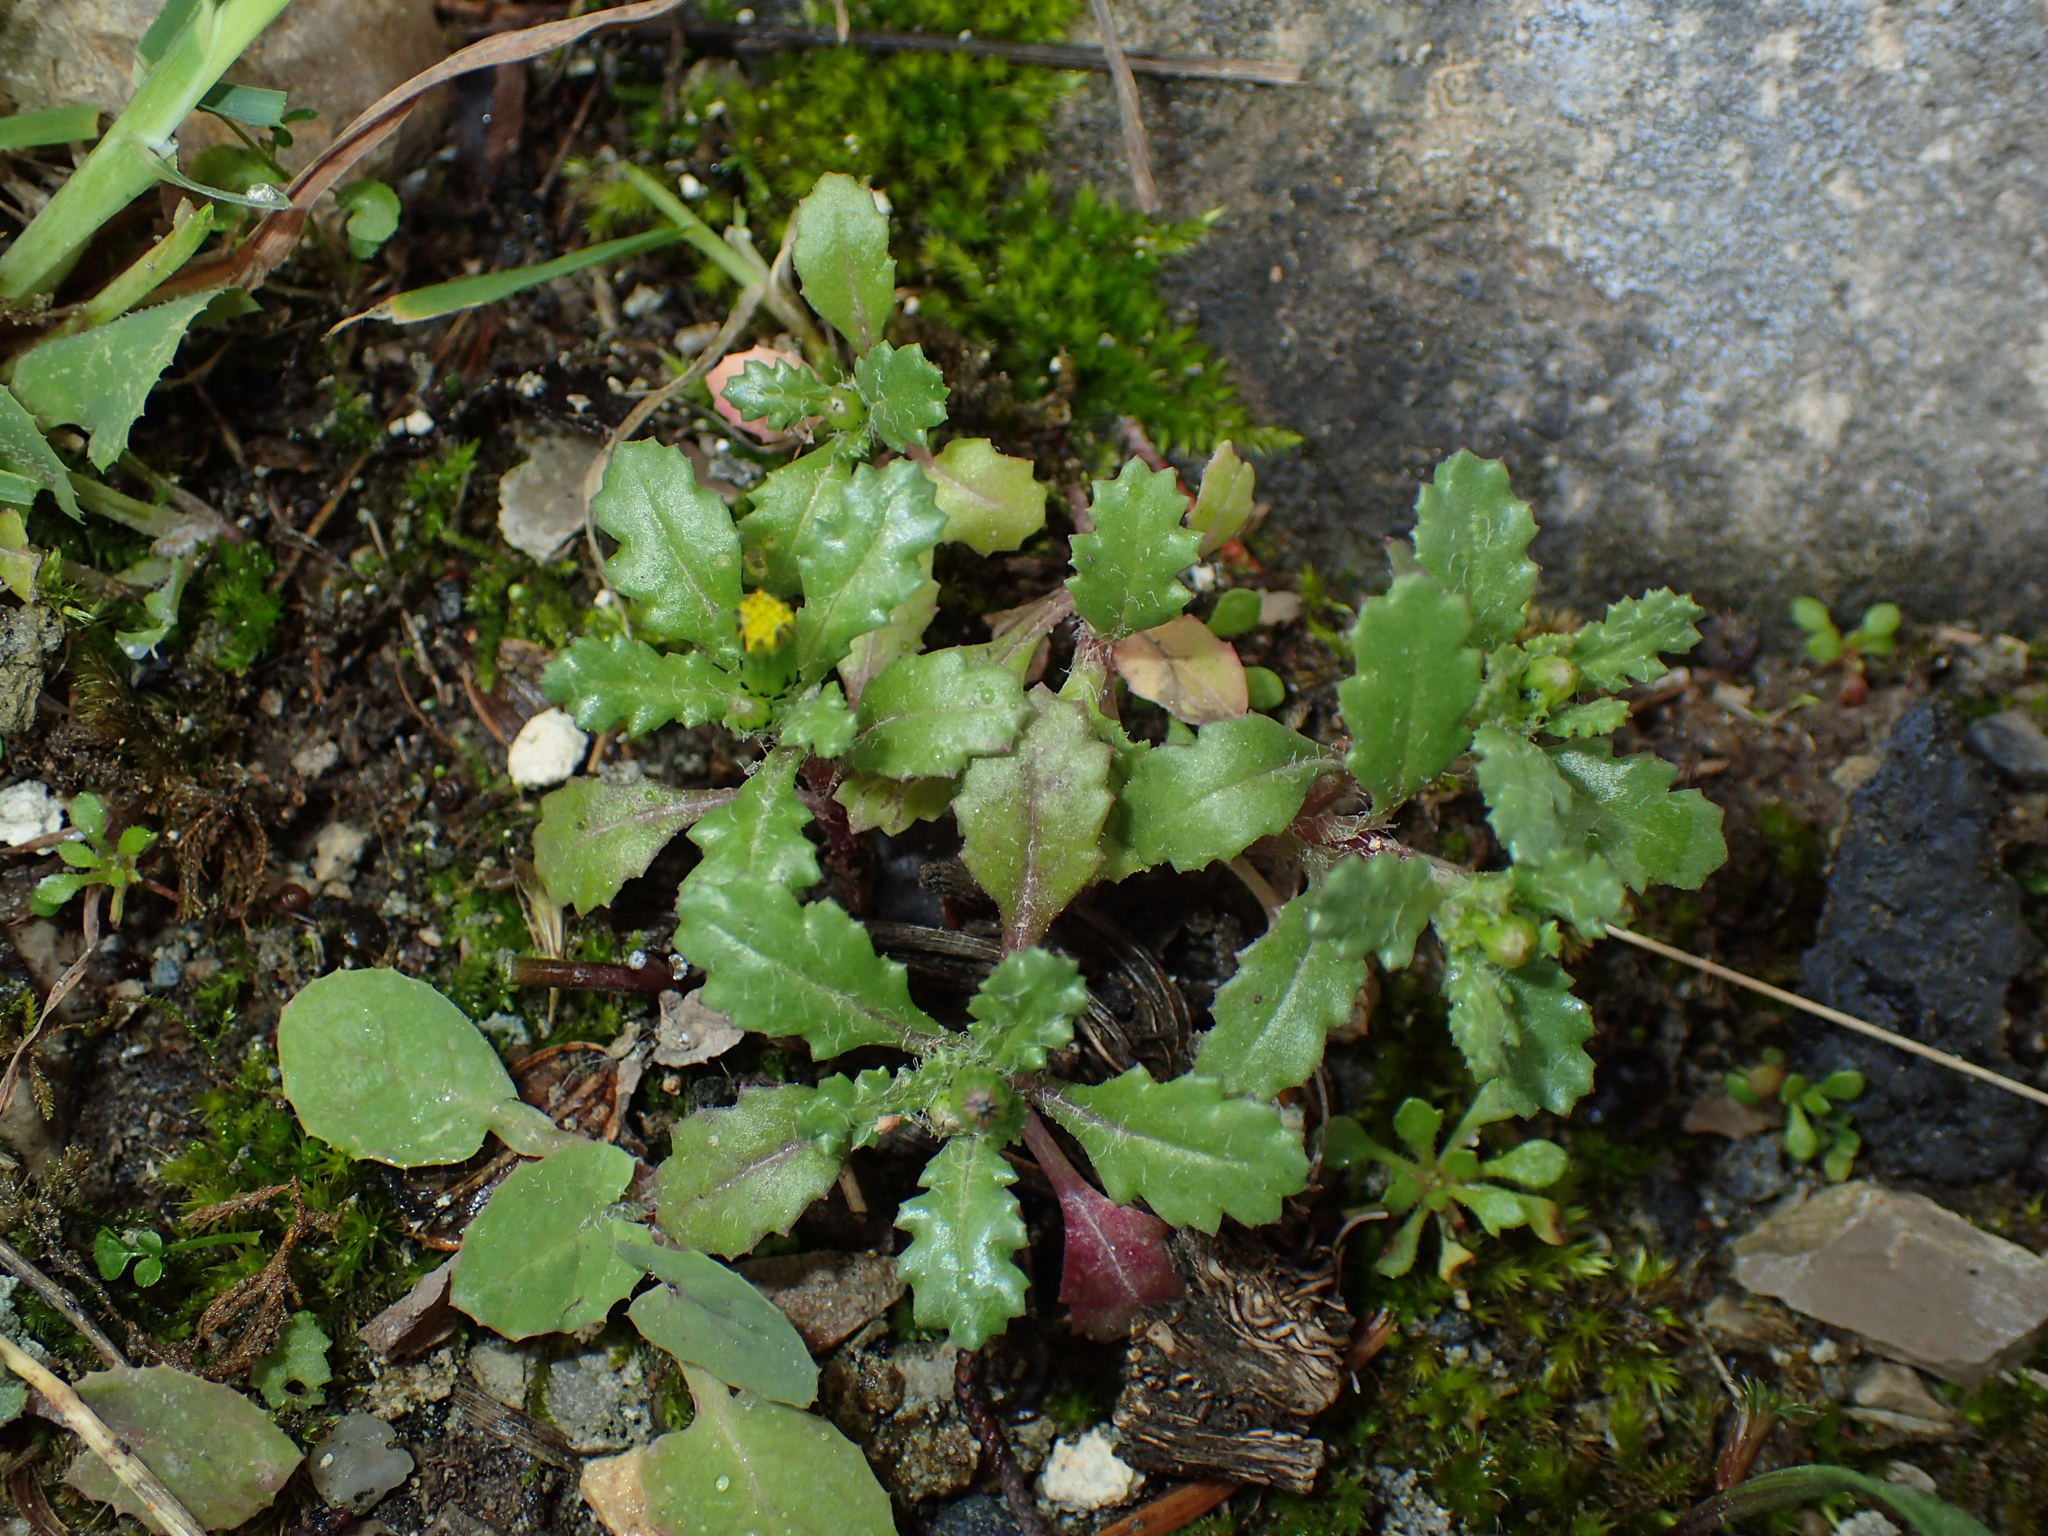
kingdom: Plantae
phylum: Tracheophyta
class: Magnoliopsida
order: Asterales
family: Asteraceae
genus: Senecio
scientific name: Senecio vulgaris
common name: Old-man-in-the-spring
